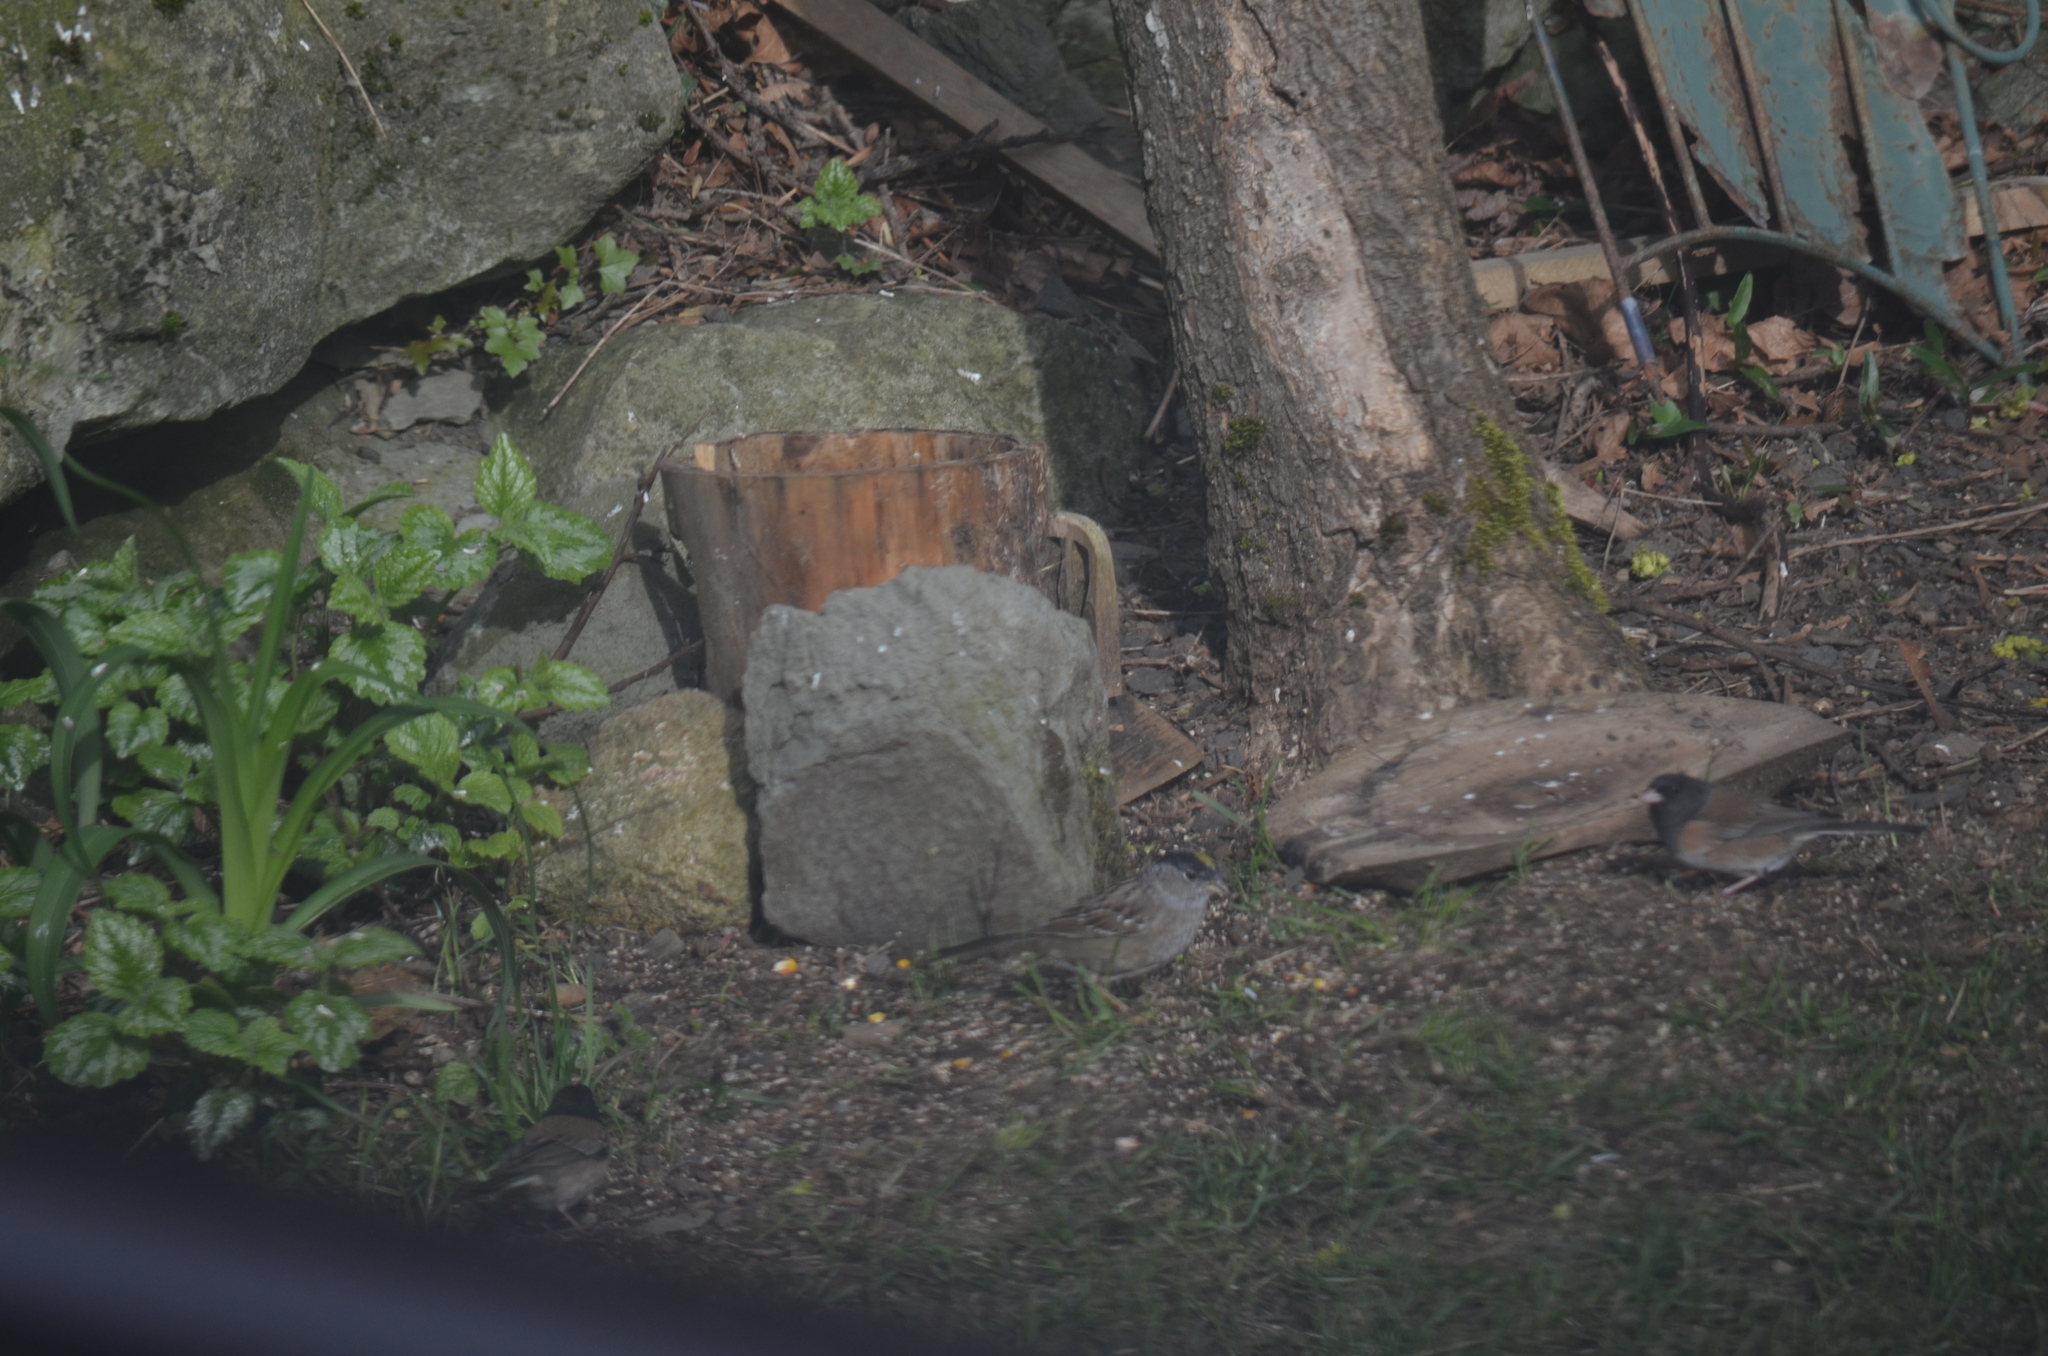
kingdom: Animalia
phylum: Chordata
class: Aves
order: Passeriformes
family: Passerellidae
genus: Zonotrichia
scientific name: Zonotrichia atricapilla
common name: Golden-crowned sparrow
